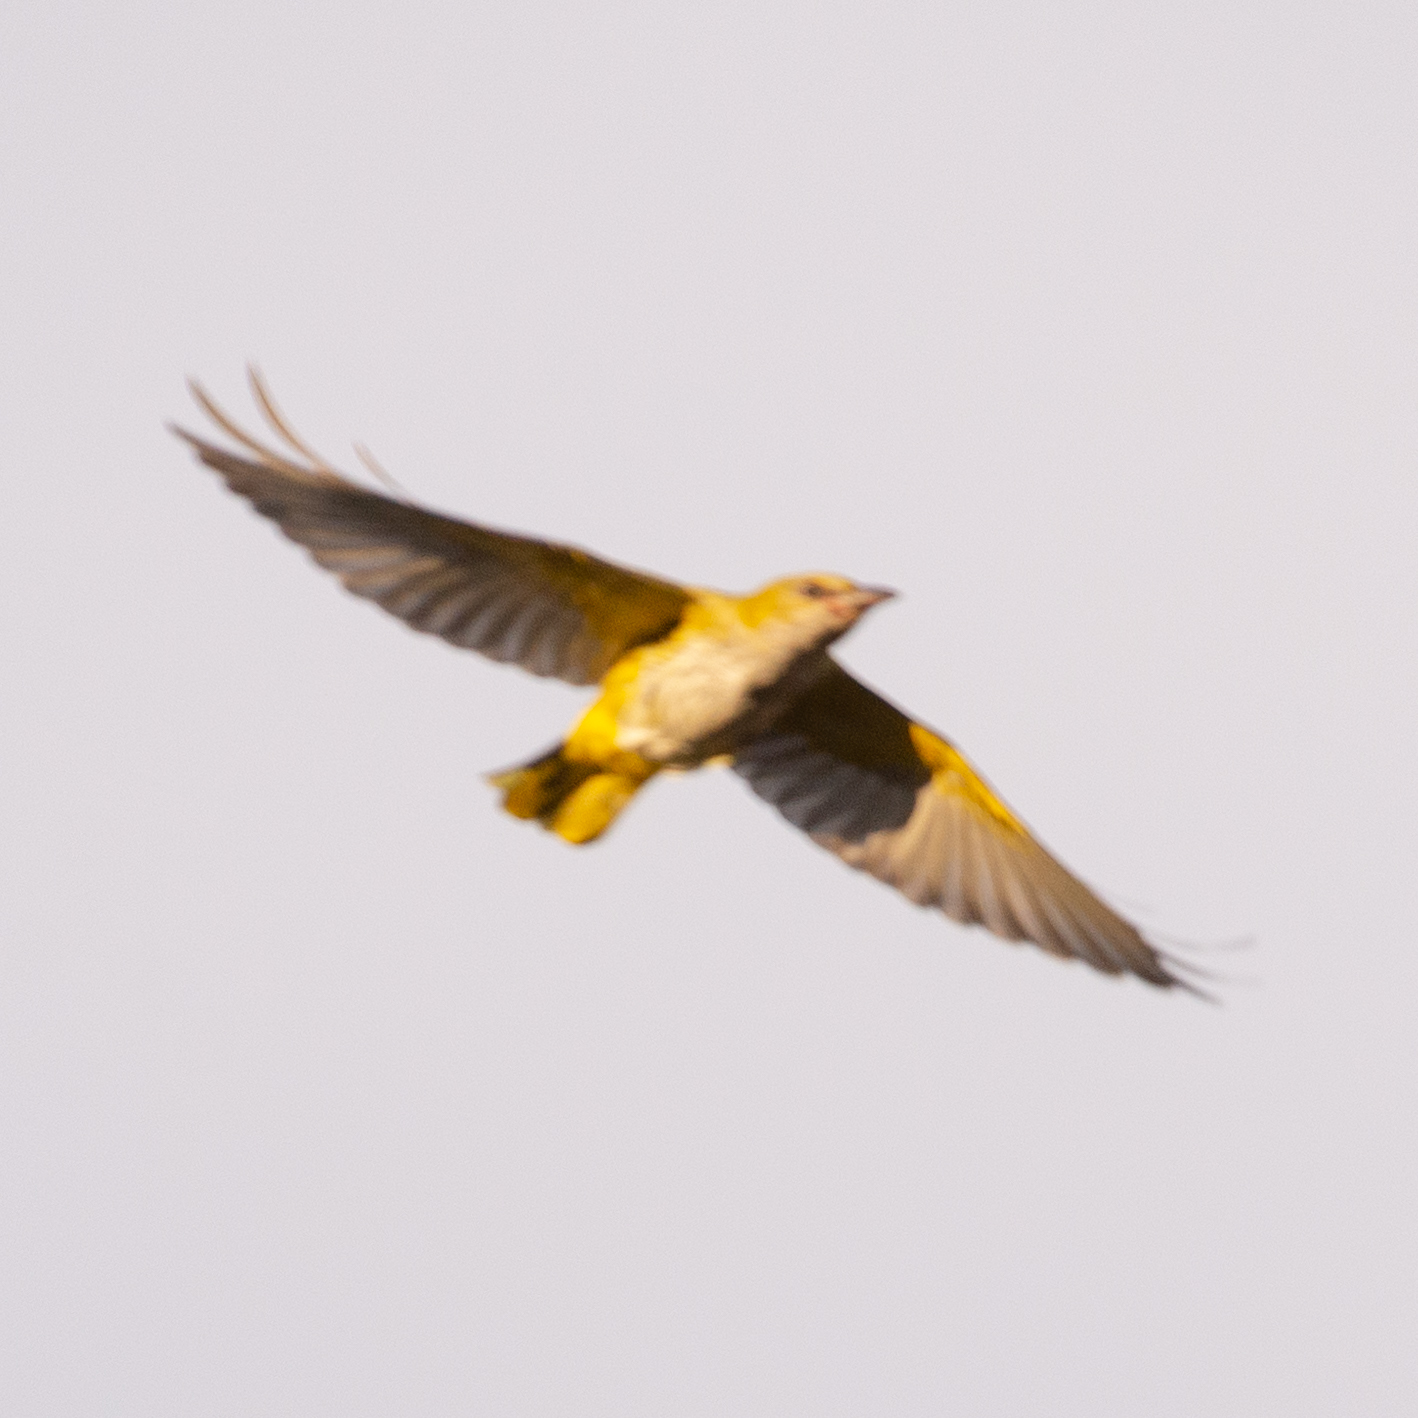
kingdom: Animalia
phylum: Chordata
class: Aves
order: Passeriformes
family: Oriolidae
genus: Oriolus
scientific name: Oriolus oriolus
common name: Eurasian golden oriole
